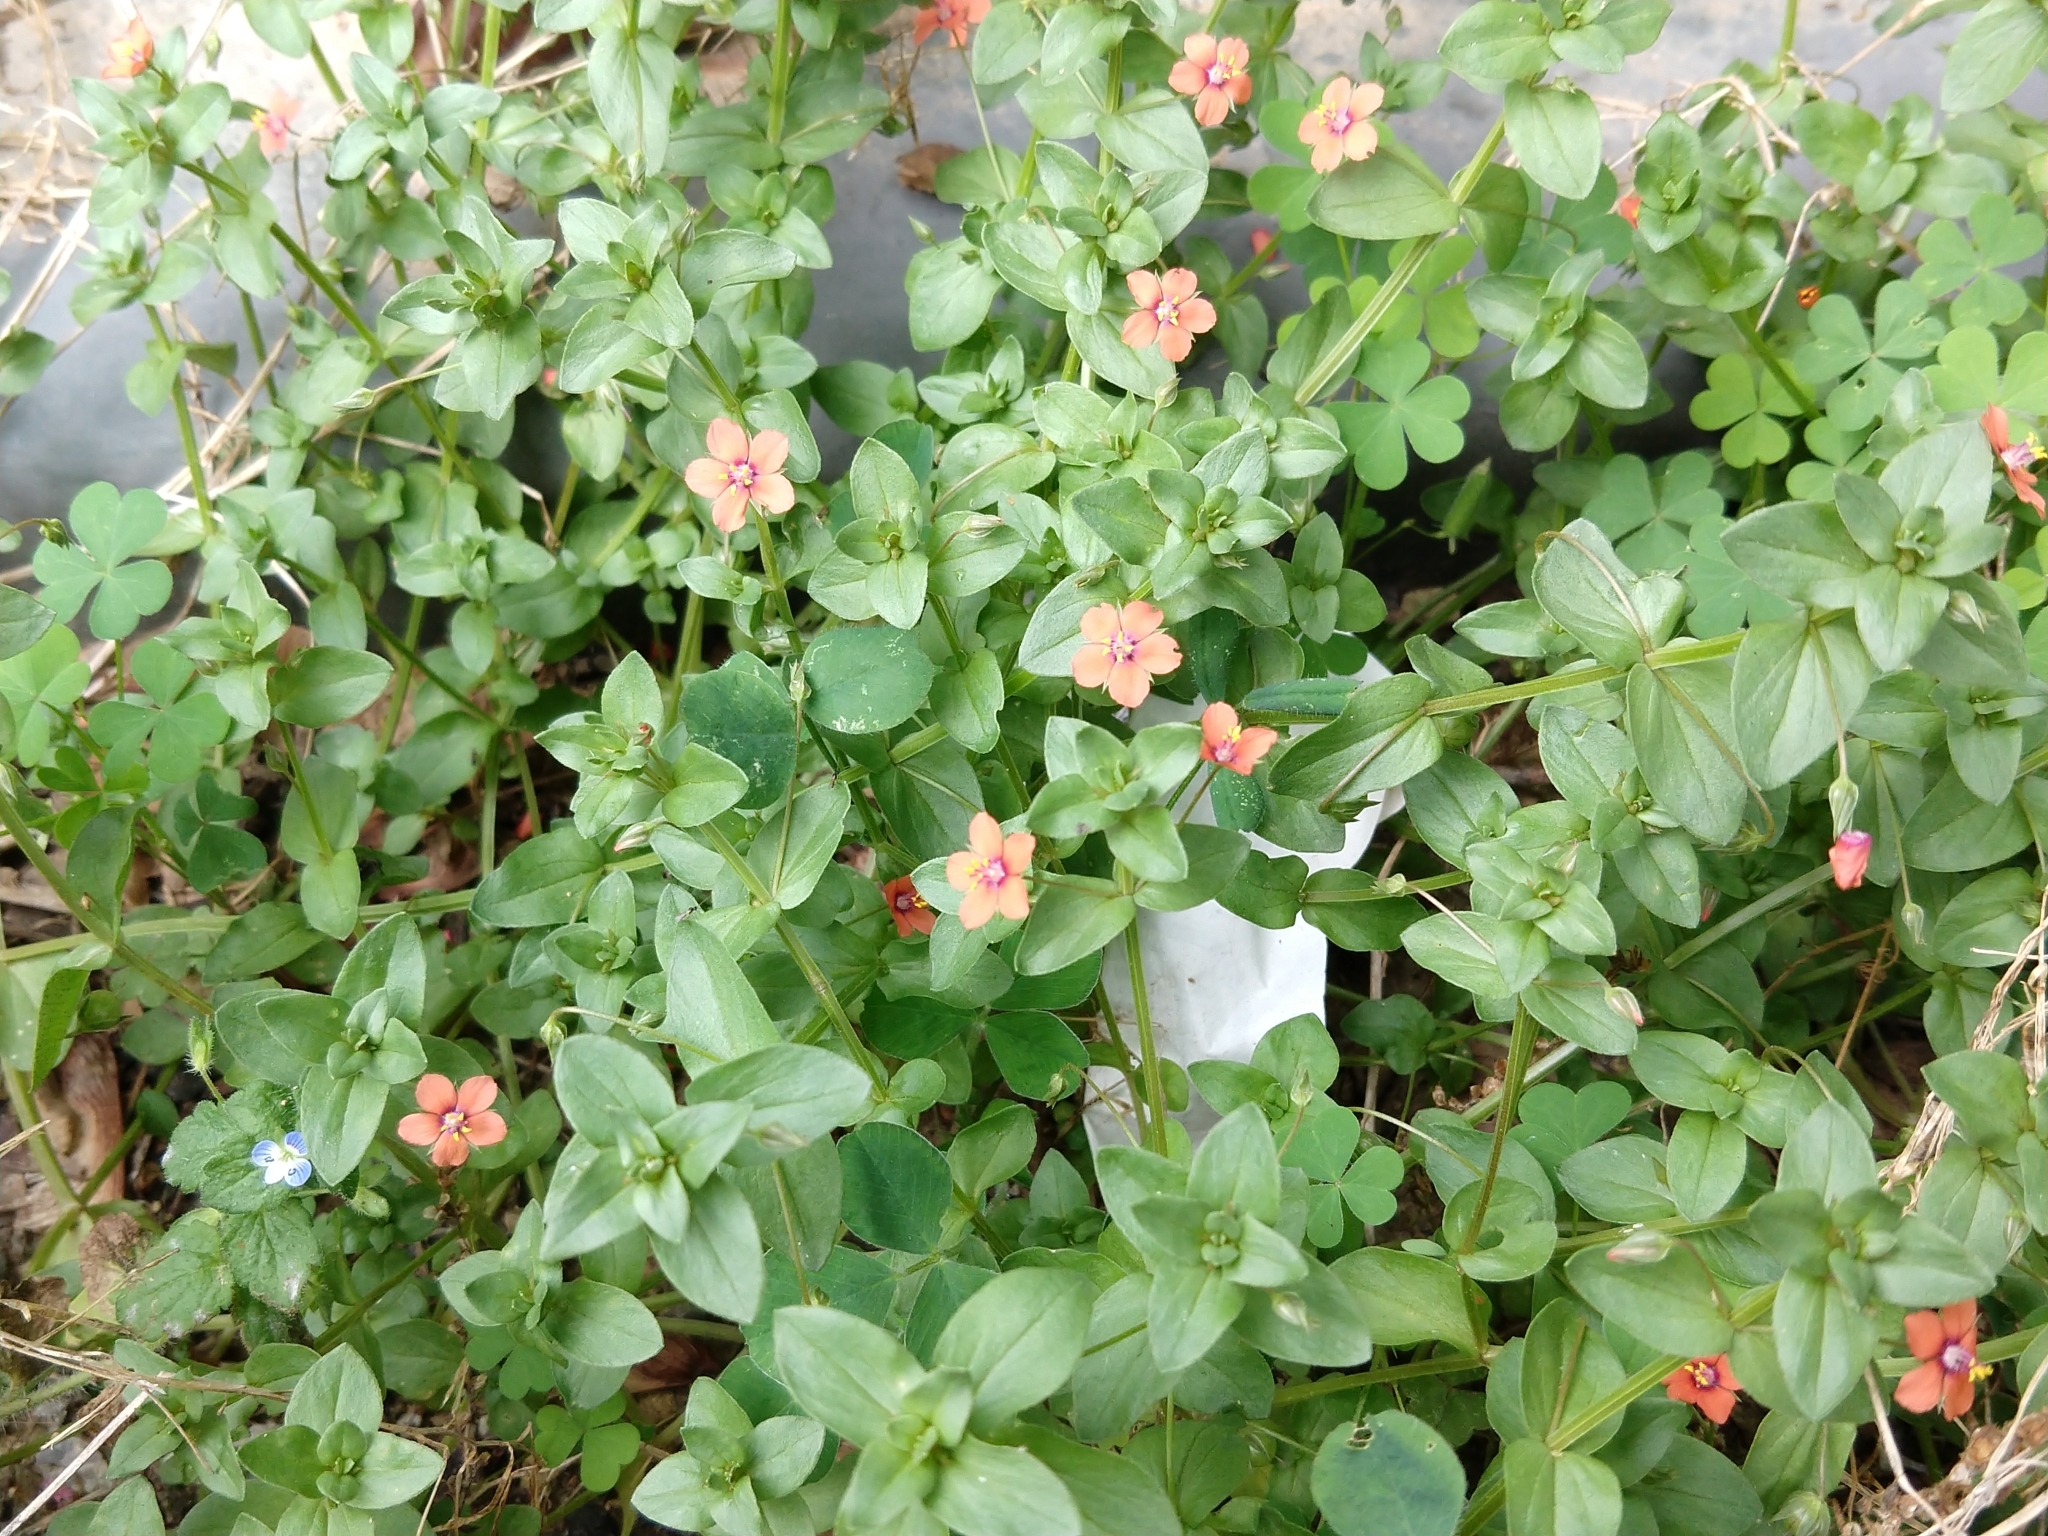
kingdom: Plantae
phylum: Tracheophyta
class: Magnoliopsida
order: Ericales
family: Primulaceae
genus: Lysimachia
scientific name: Lysimachia arvensis
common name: Scarlet pimpernel
